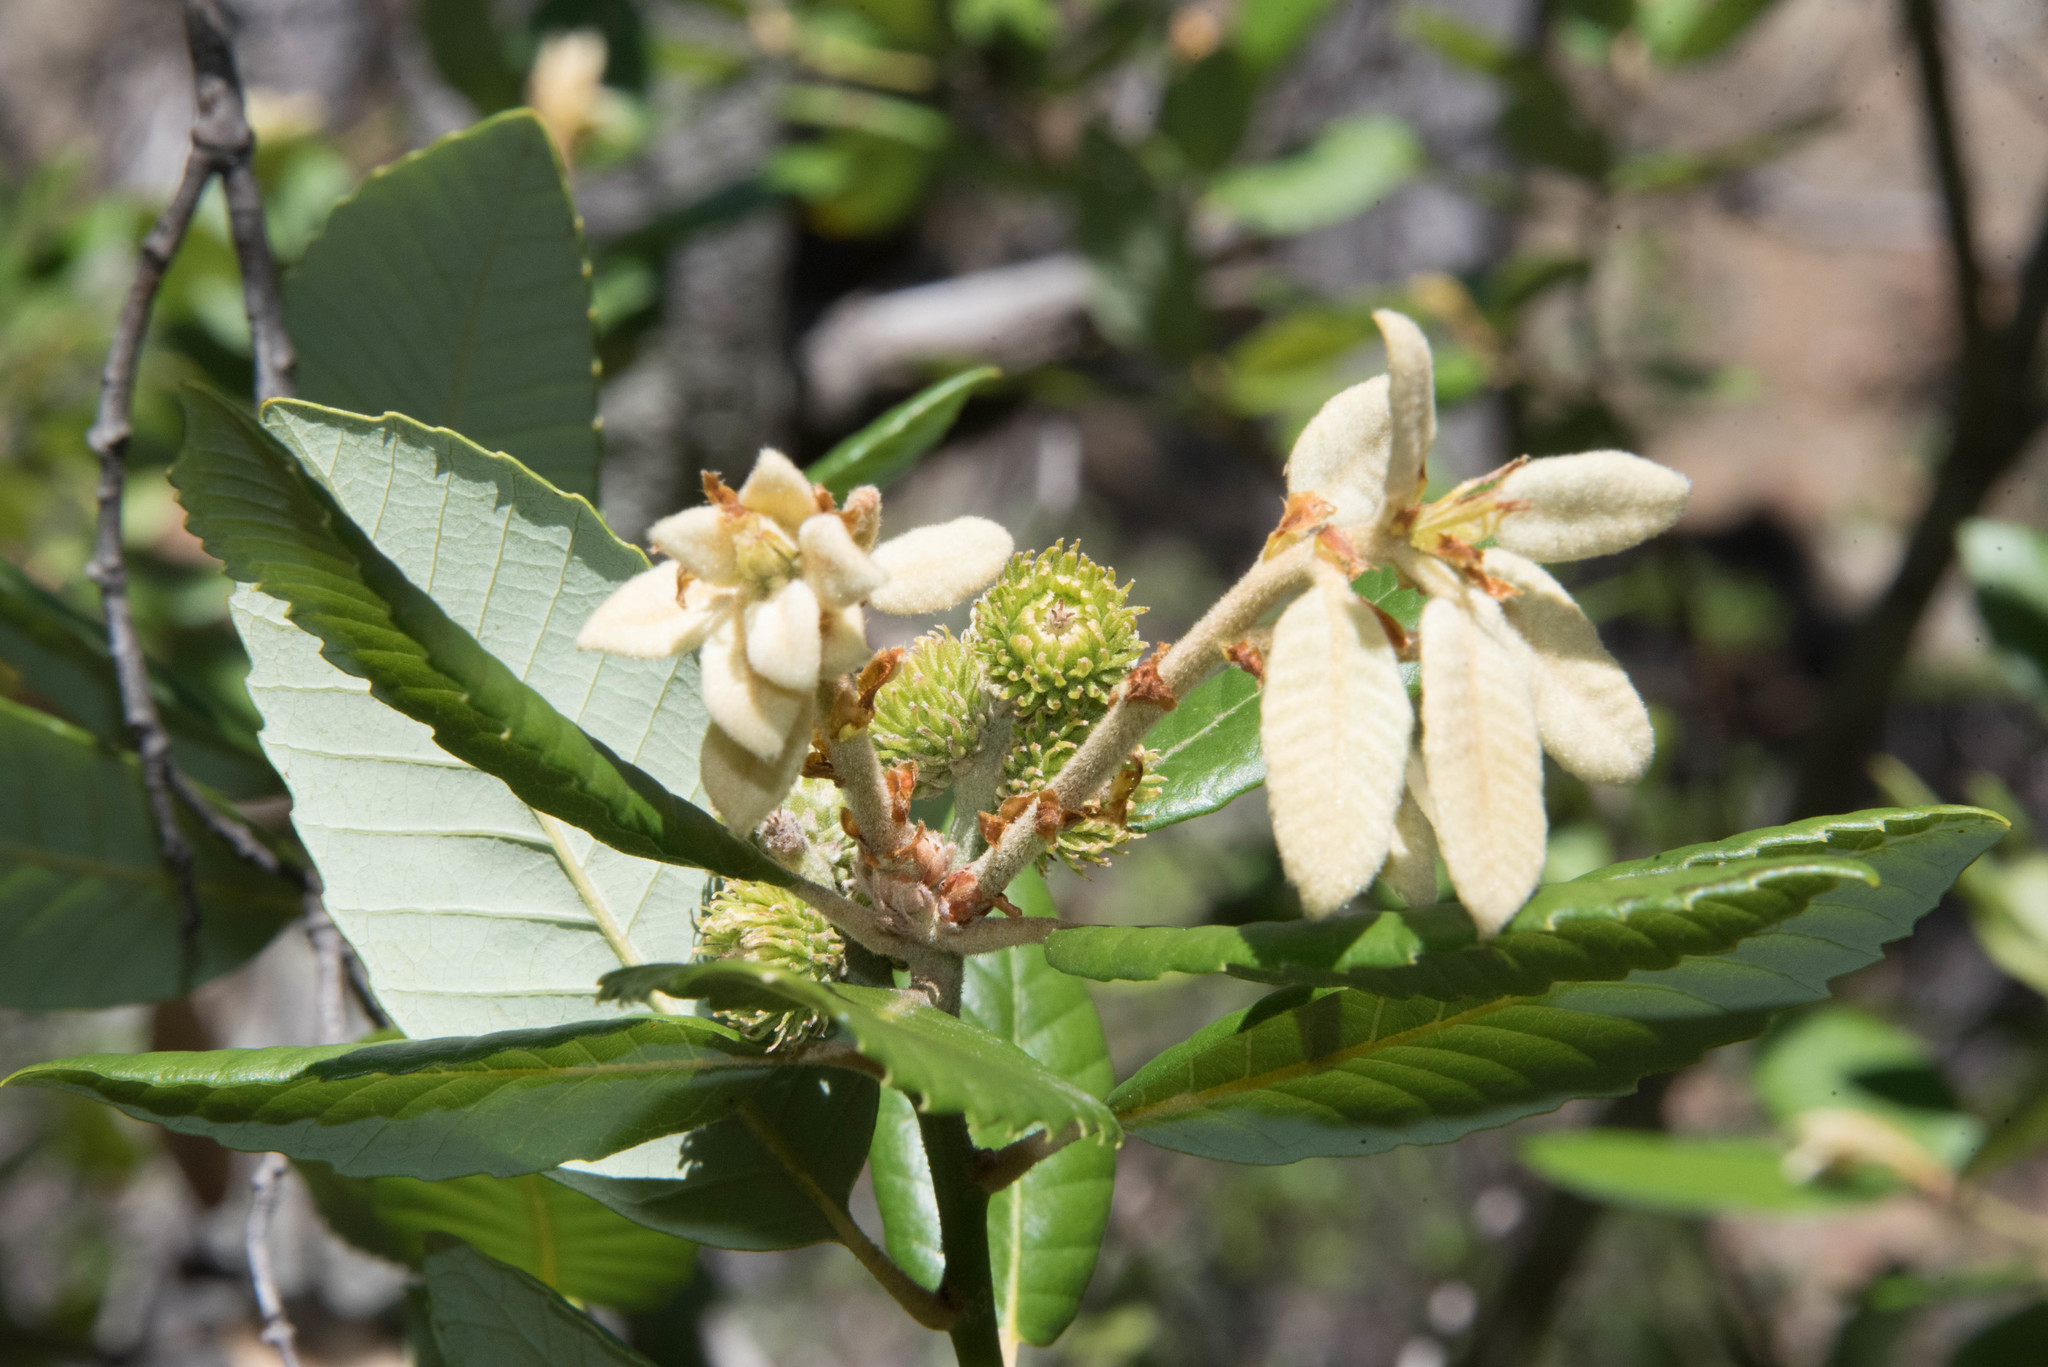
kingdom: Plantae
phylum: Tracheophyta
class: Magnoliopsida
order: Fagales
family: Fagaceae
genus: Notholithocarpus
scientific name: Notholithocarpus densiflorus
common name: Tan bark oak
